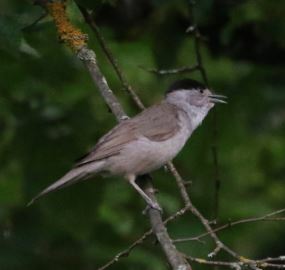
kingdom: Animalia
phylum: Chordata
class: Aves
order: Passeriformes
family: Sylviidae
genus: Sylvia
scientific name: Sylvia atricapilla
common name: Eurasian blackcap
